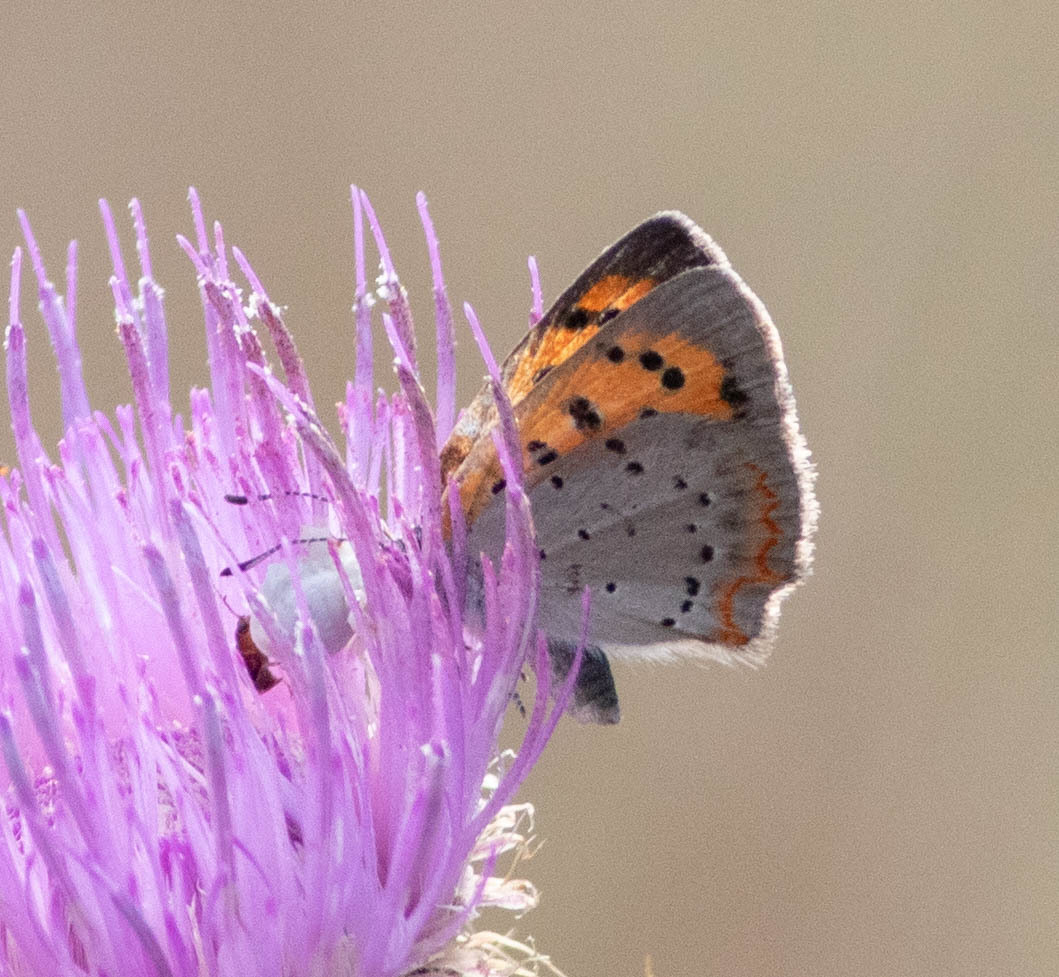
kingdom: Animalia
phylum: Arthropoda
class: Insecta
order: Lepidoptera
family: Lycaenidae
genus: Lycaena
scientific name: Lycaena hypophlaeas
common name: American copper
